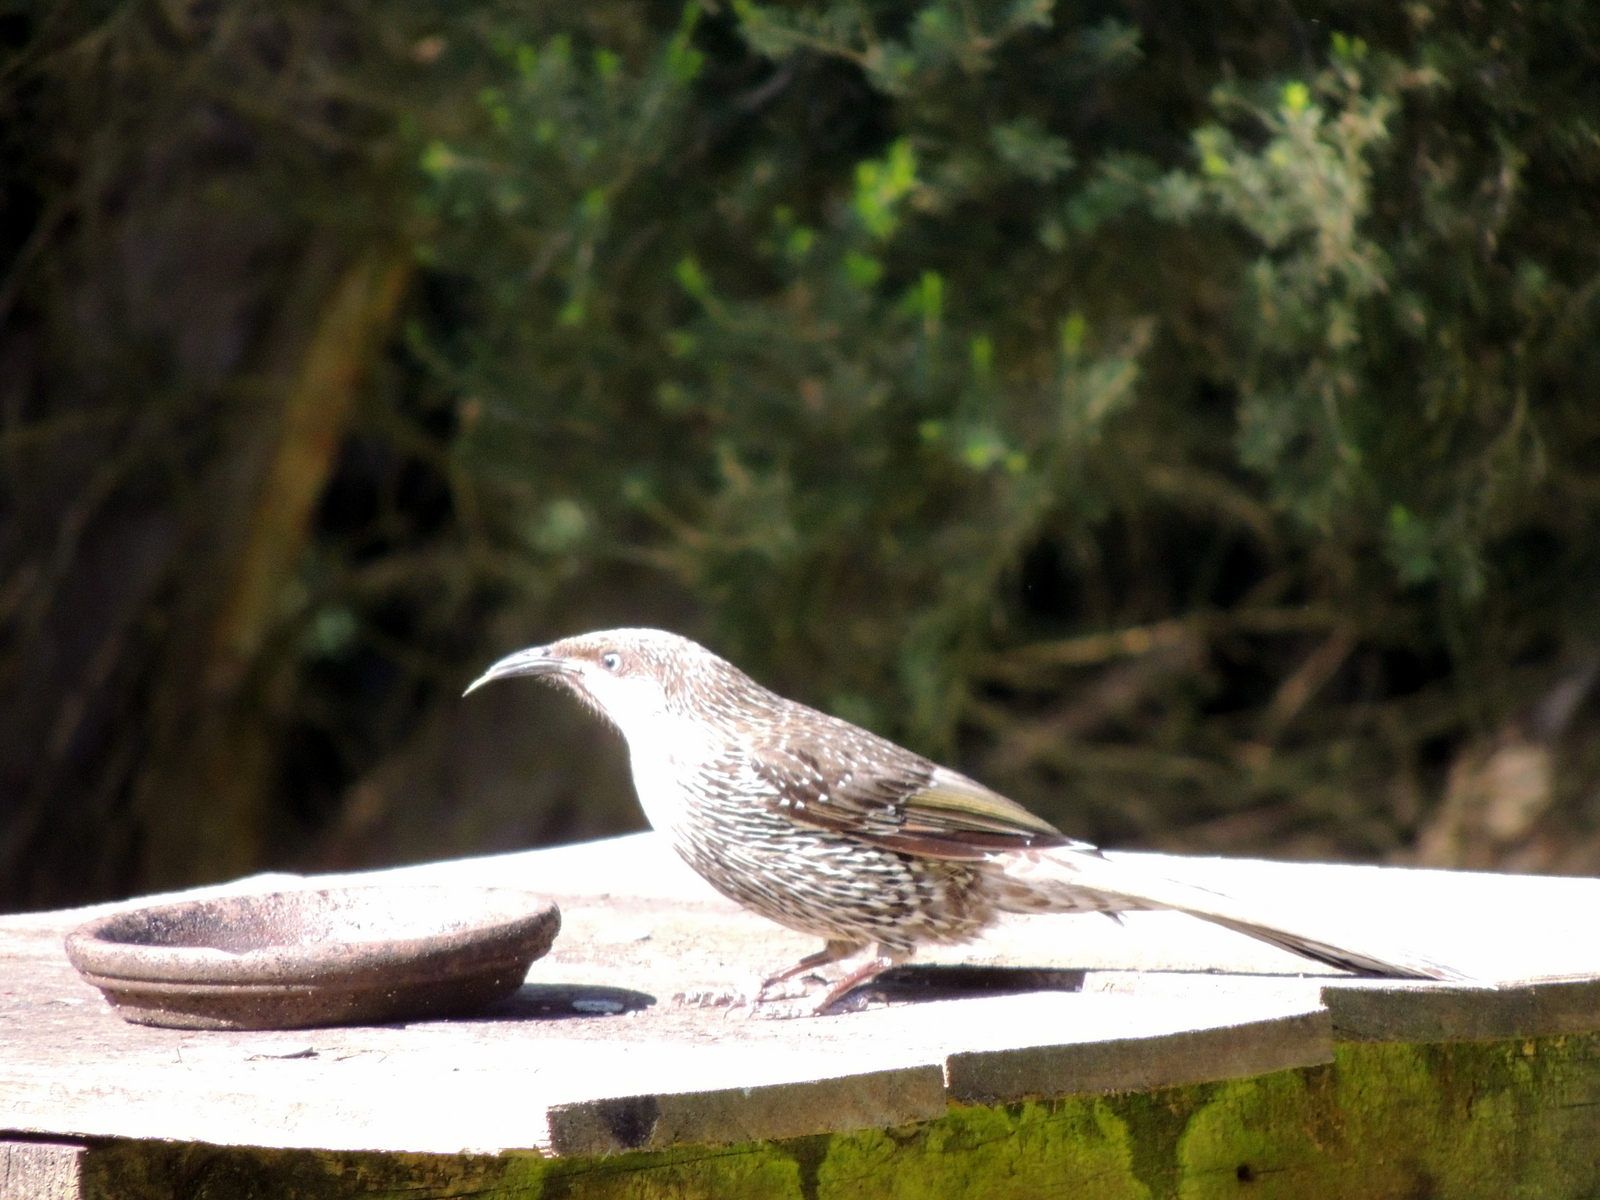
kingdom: Animalia
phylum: Chordata
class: Aves
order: Passeriformes
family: Meliphagidae
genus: Anthochaera
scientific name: Anthochaera chrysoptera
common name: Little wattlebird
